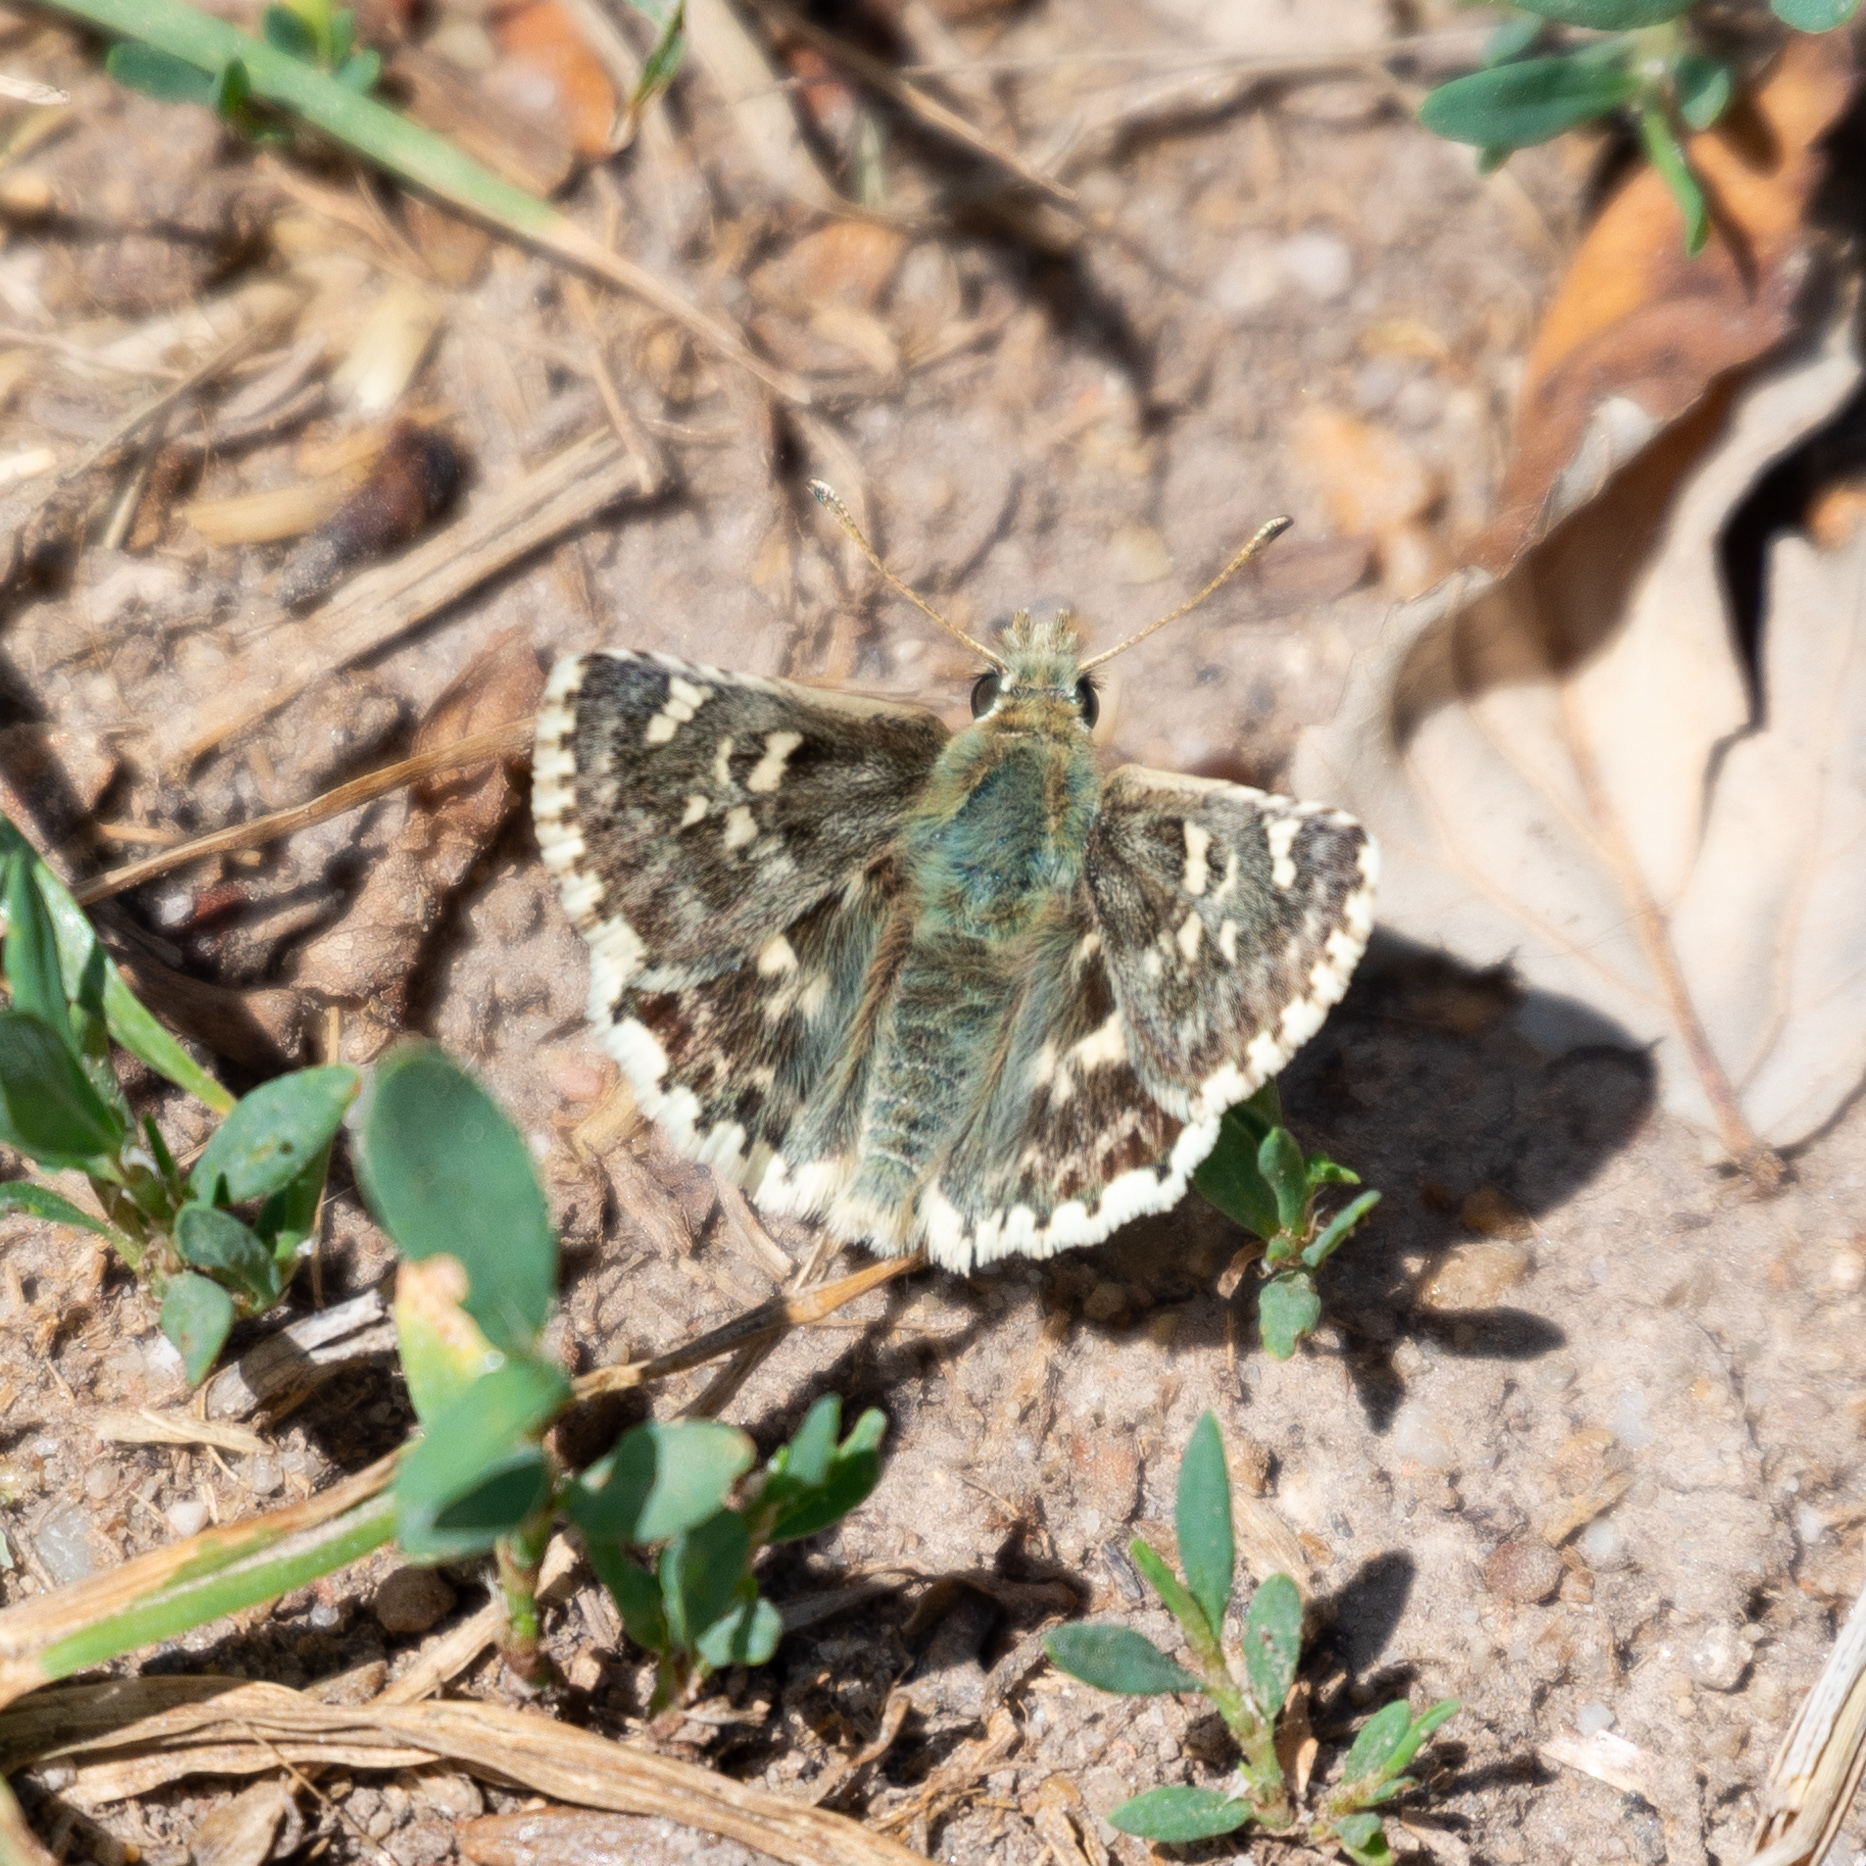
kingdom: Animalia
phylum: Arthropoda
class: Insecta
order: Lepidoptera
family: Hesperiidae
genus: Syrichtus
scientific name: Syrichtus Muschampia proto
